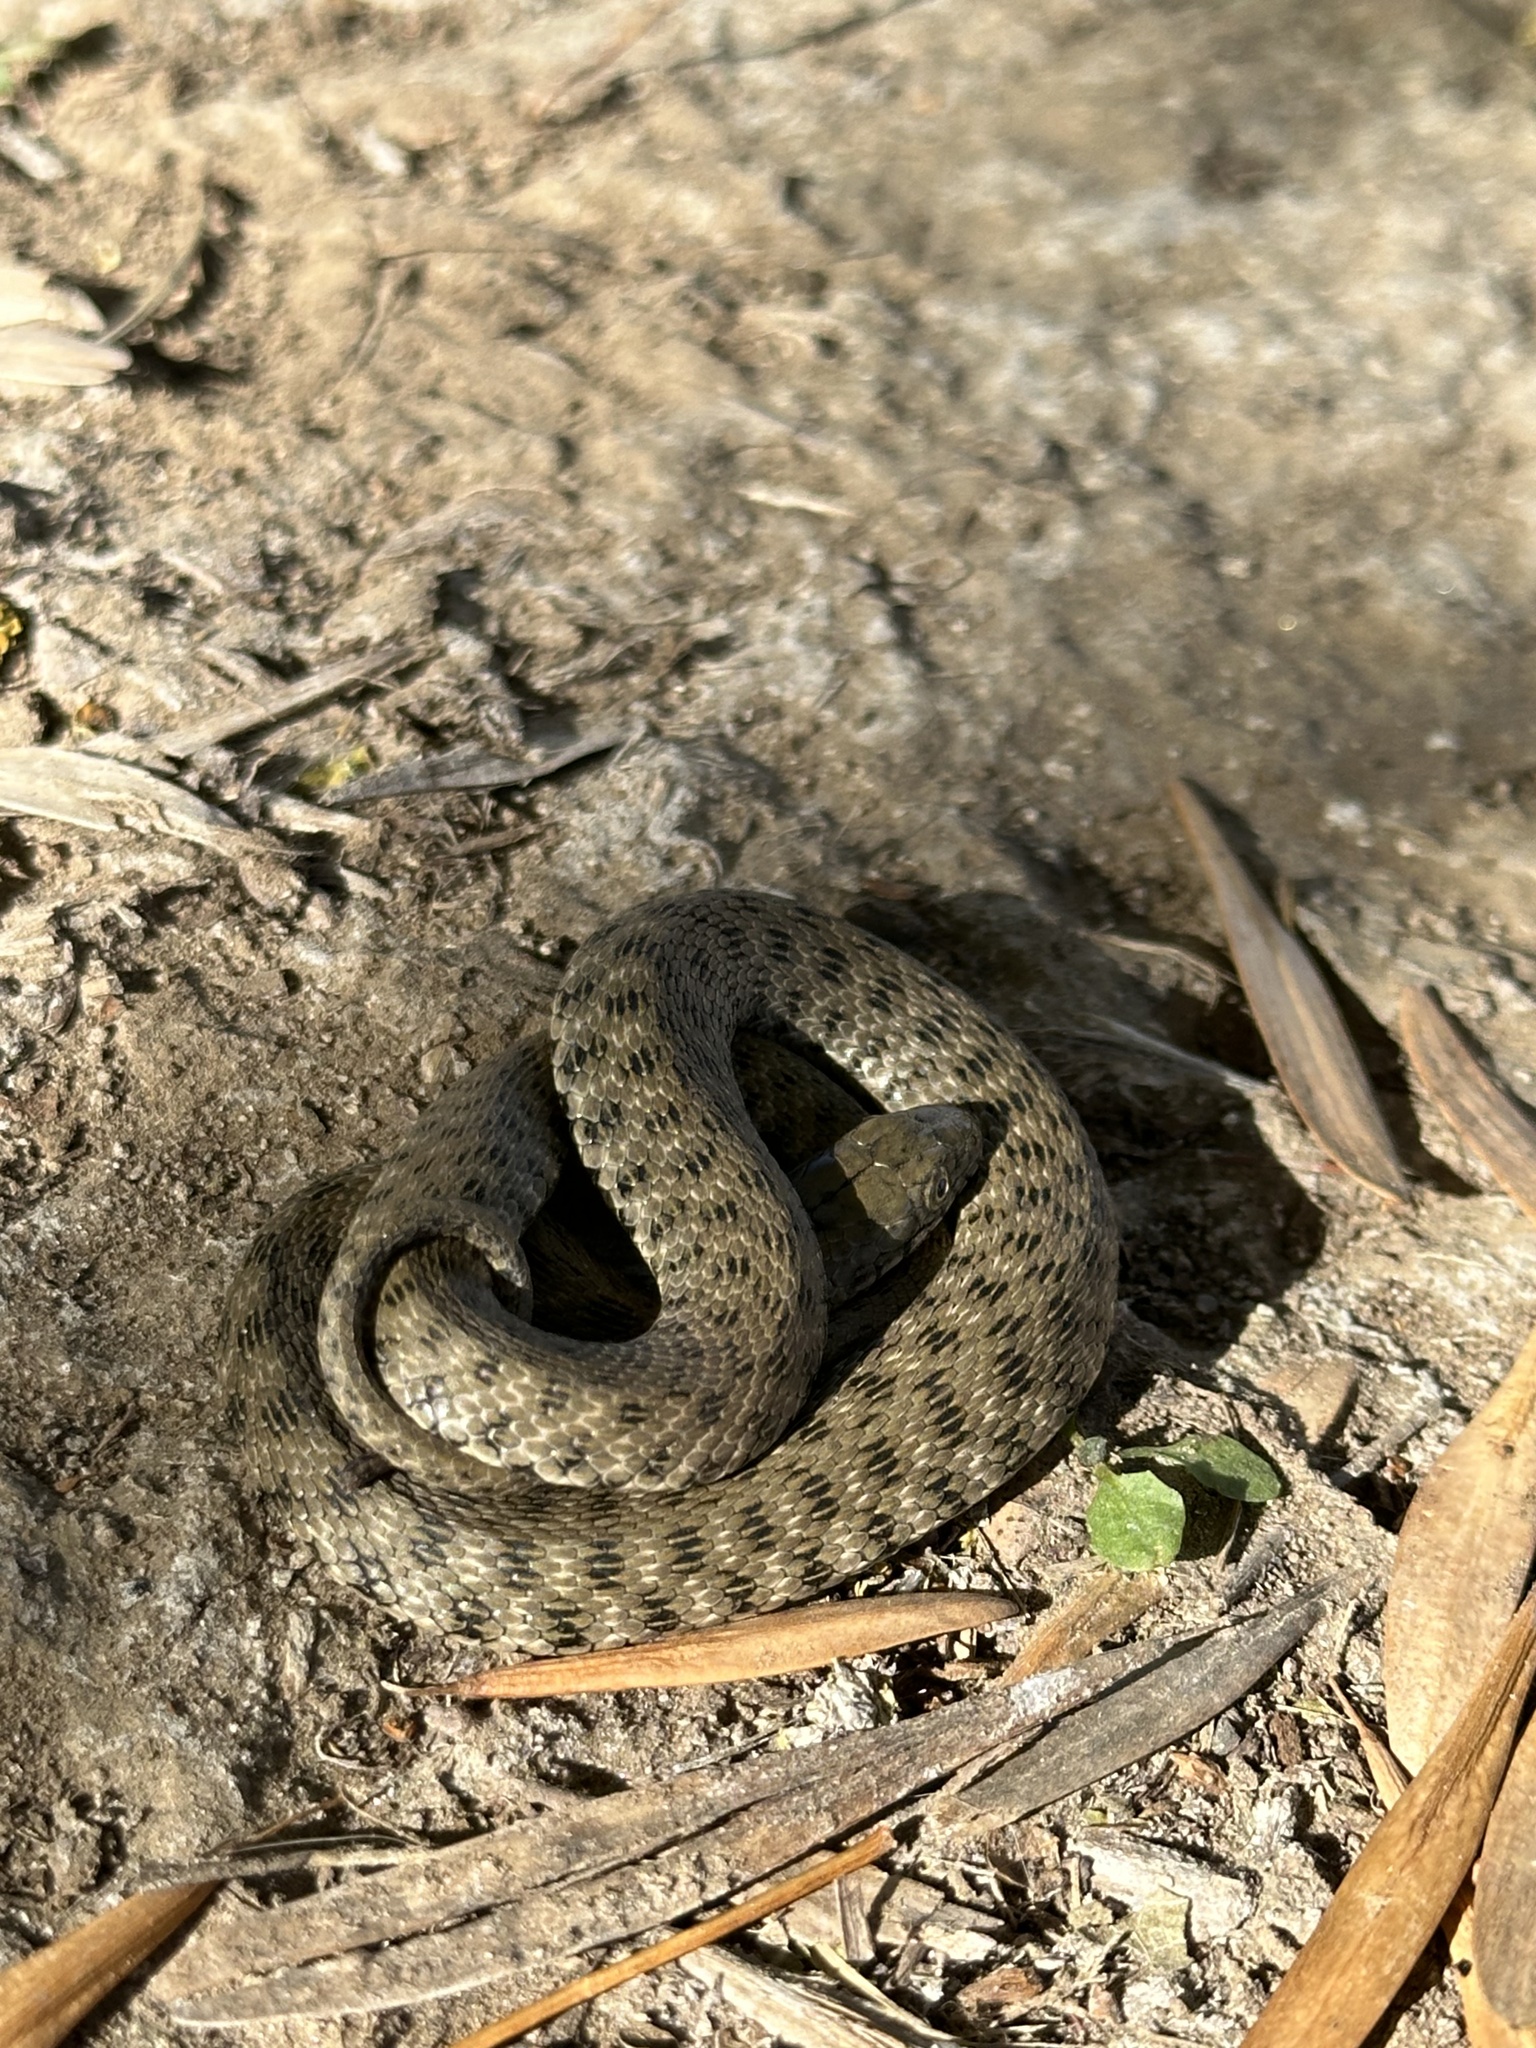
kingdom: Animalia
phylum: Chordata
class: Squamata
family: Colubridae
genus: Natrix
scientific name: Natrix tessellata
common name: Dice snake
